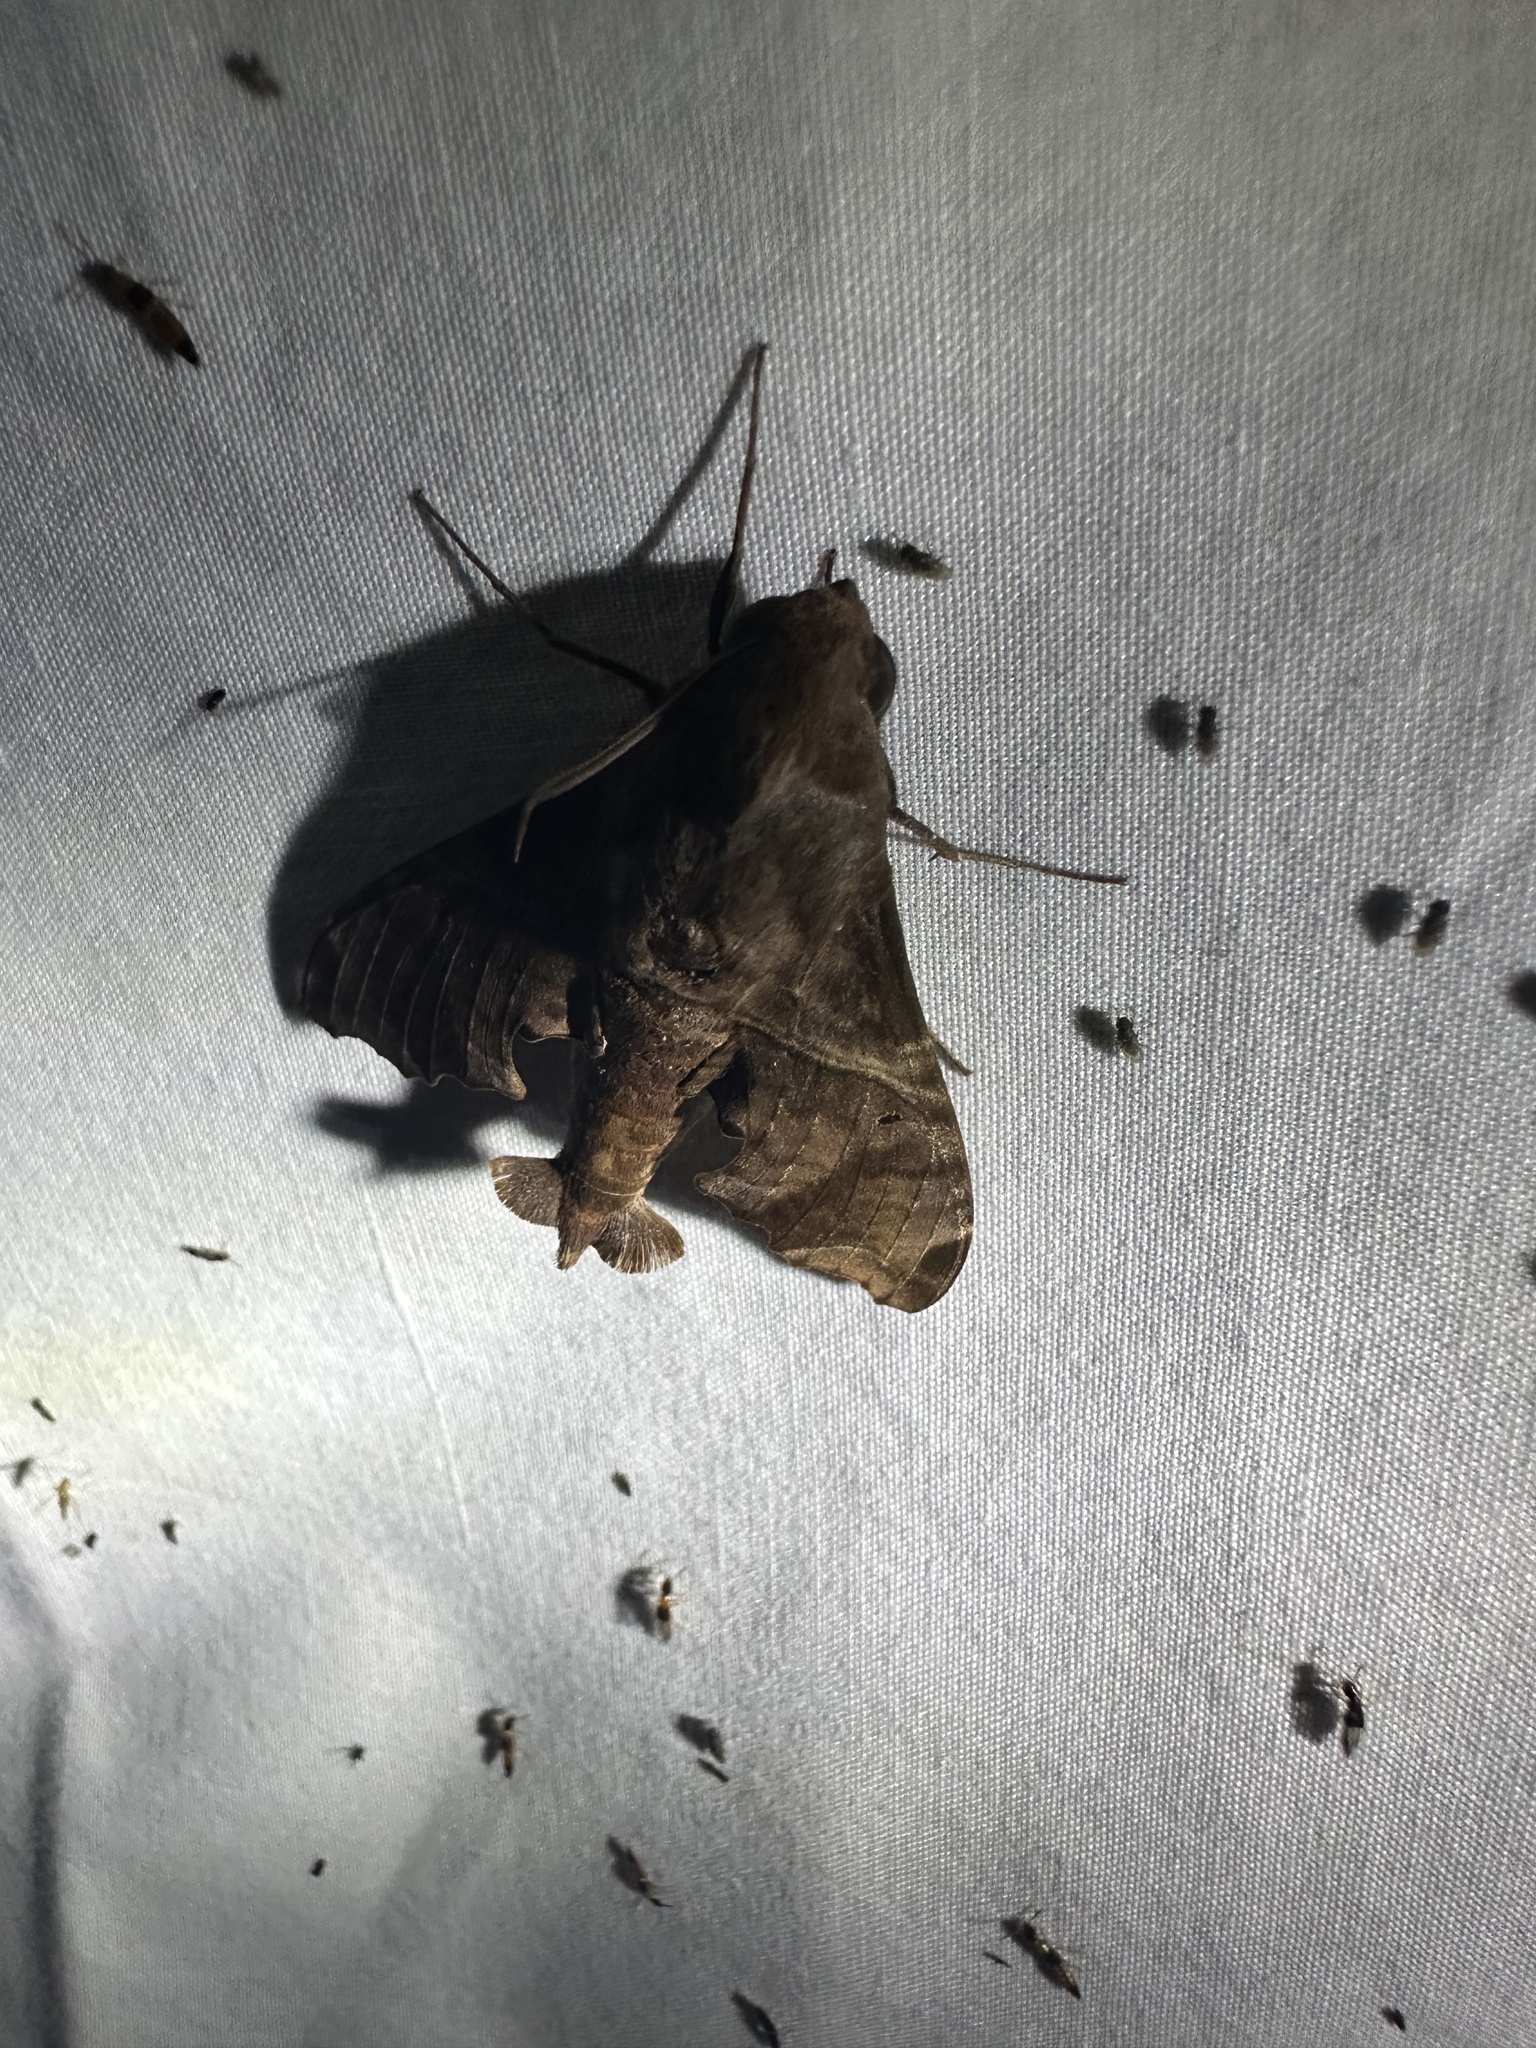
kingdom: Animalia
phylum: Arthropoda
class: Insecta
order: Lepidoptera
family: Sphingidae
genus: Enyo
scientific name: Enyo lugubris
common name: Mournful sphinx
